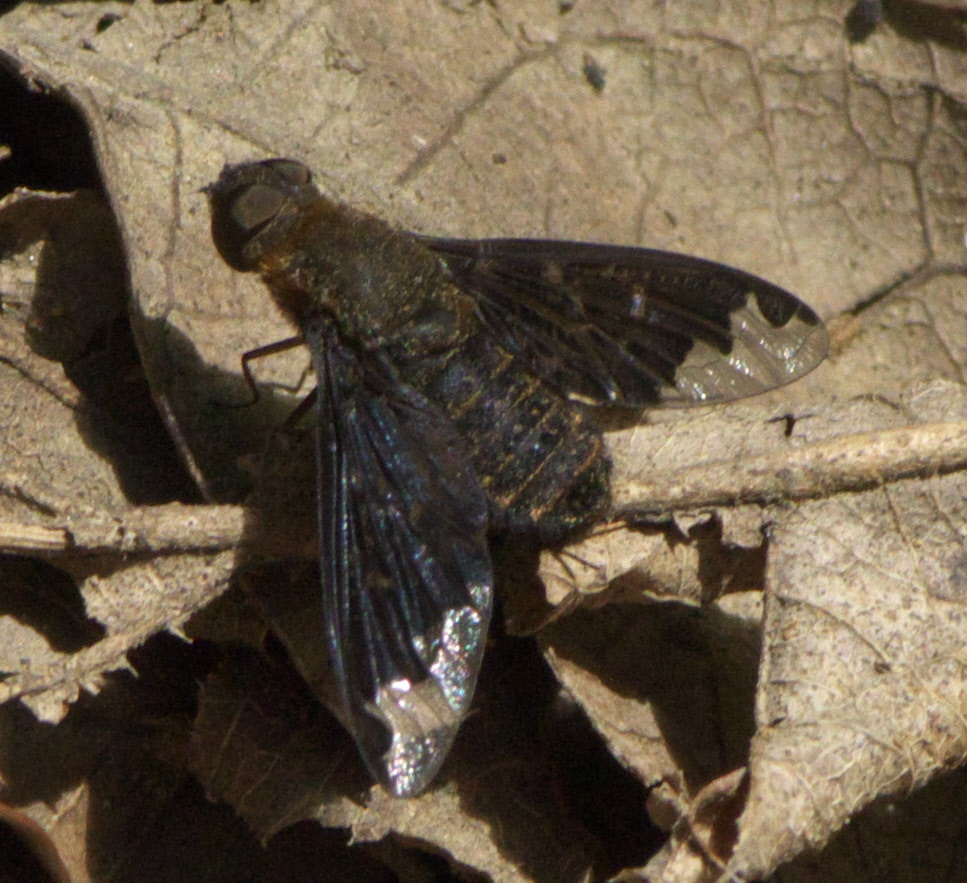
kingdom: Animalia
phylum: Arthropoda
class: Insecta
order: Diptera
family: Bombyliidae
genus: Hemipenthes
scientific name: Hemipenthes sinuosus
